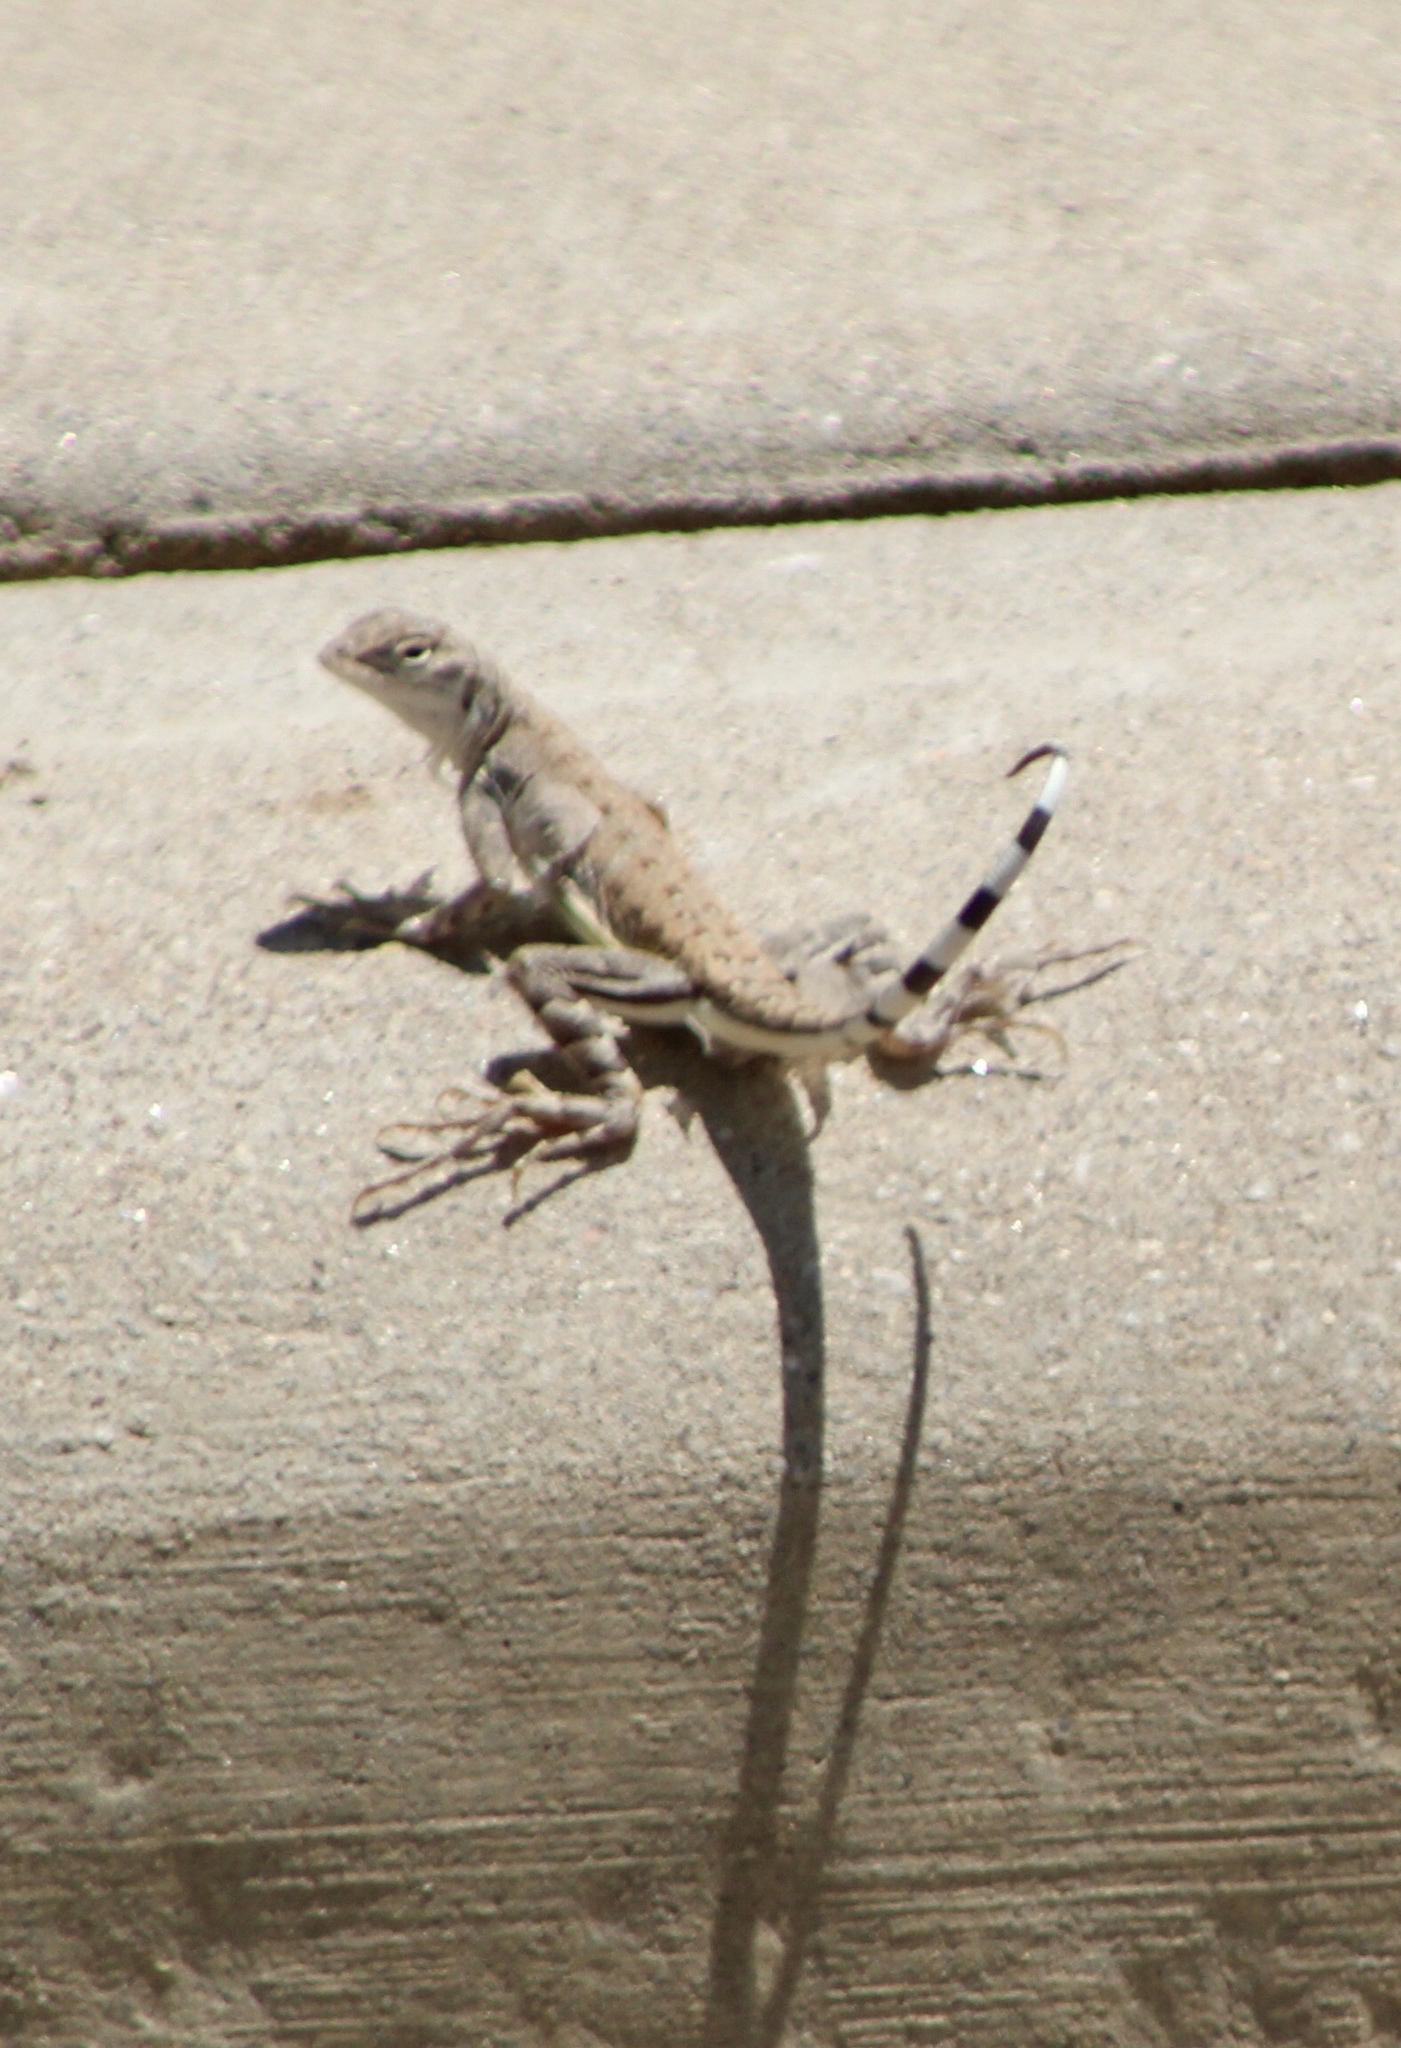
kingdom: Animalia
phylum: Chordata
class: Squamata
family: Phrynosomatidae
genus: Callisaurus
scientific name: Callisaurus draconoides
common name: Zebra-tailed lizard
